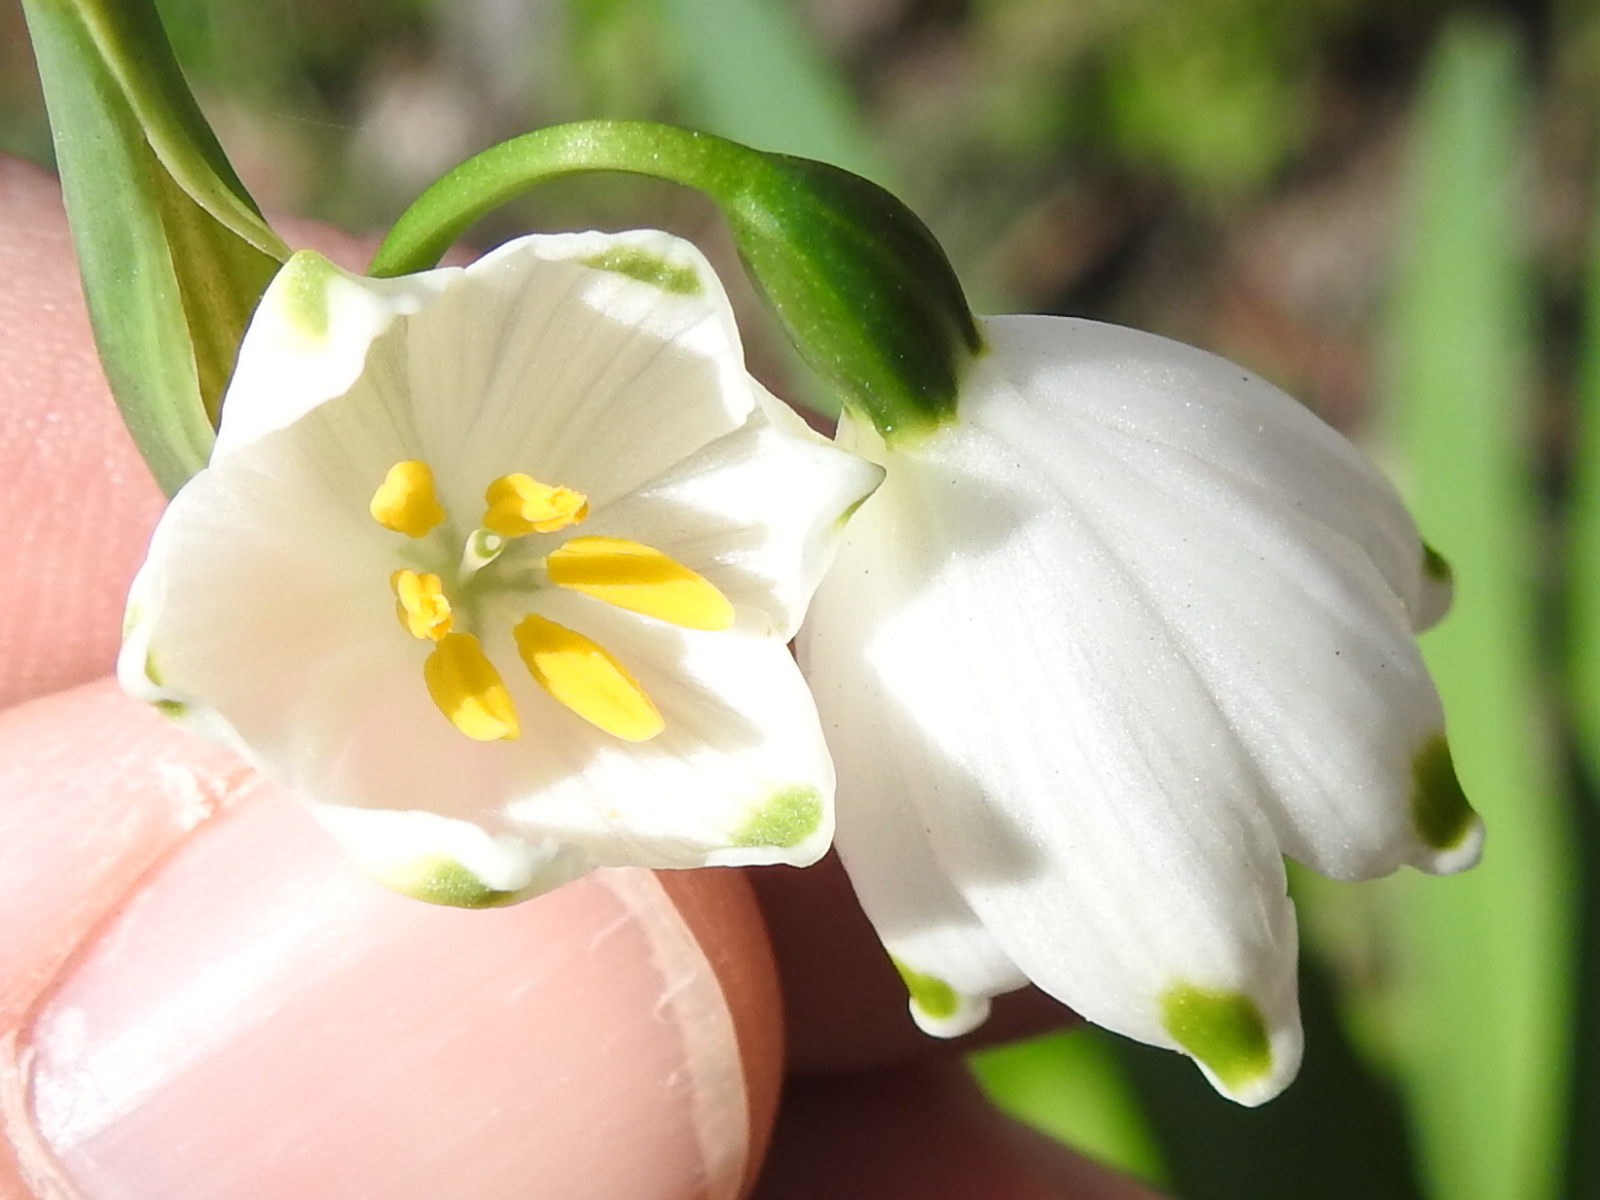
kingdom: Plantae
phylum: Tracheophyta
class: Liliopsida
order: Asparagales
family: Amaryllidaceae
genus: Leucojum
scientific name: Leucojum aestivum
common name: Summer snowflake
